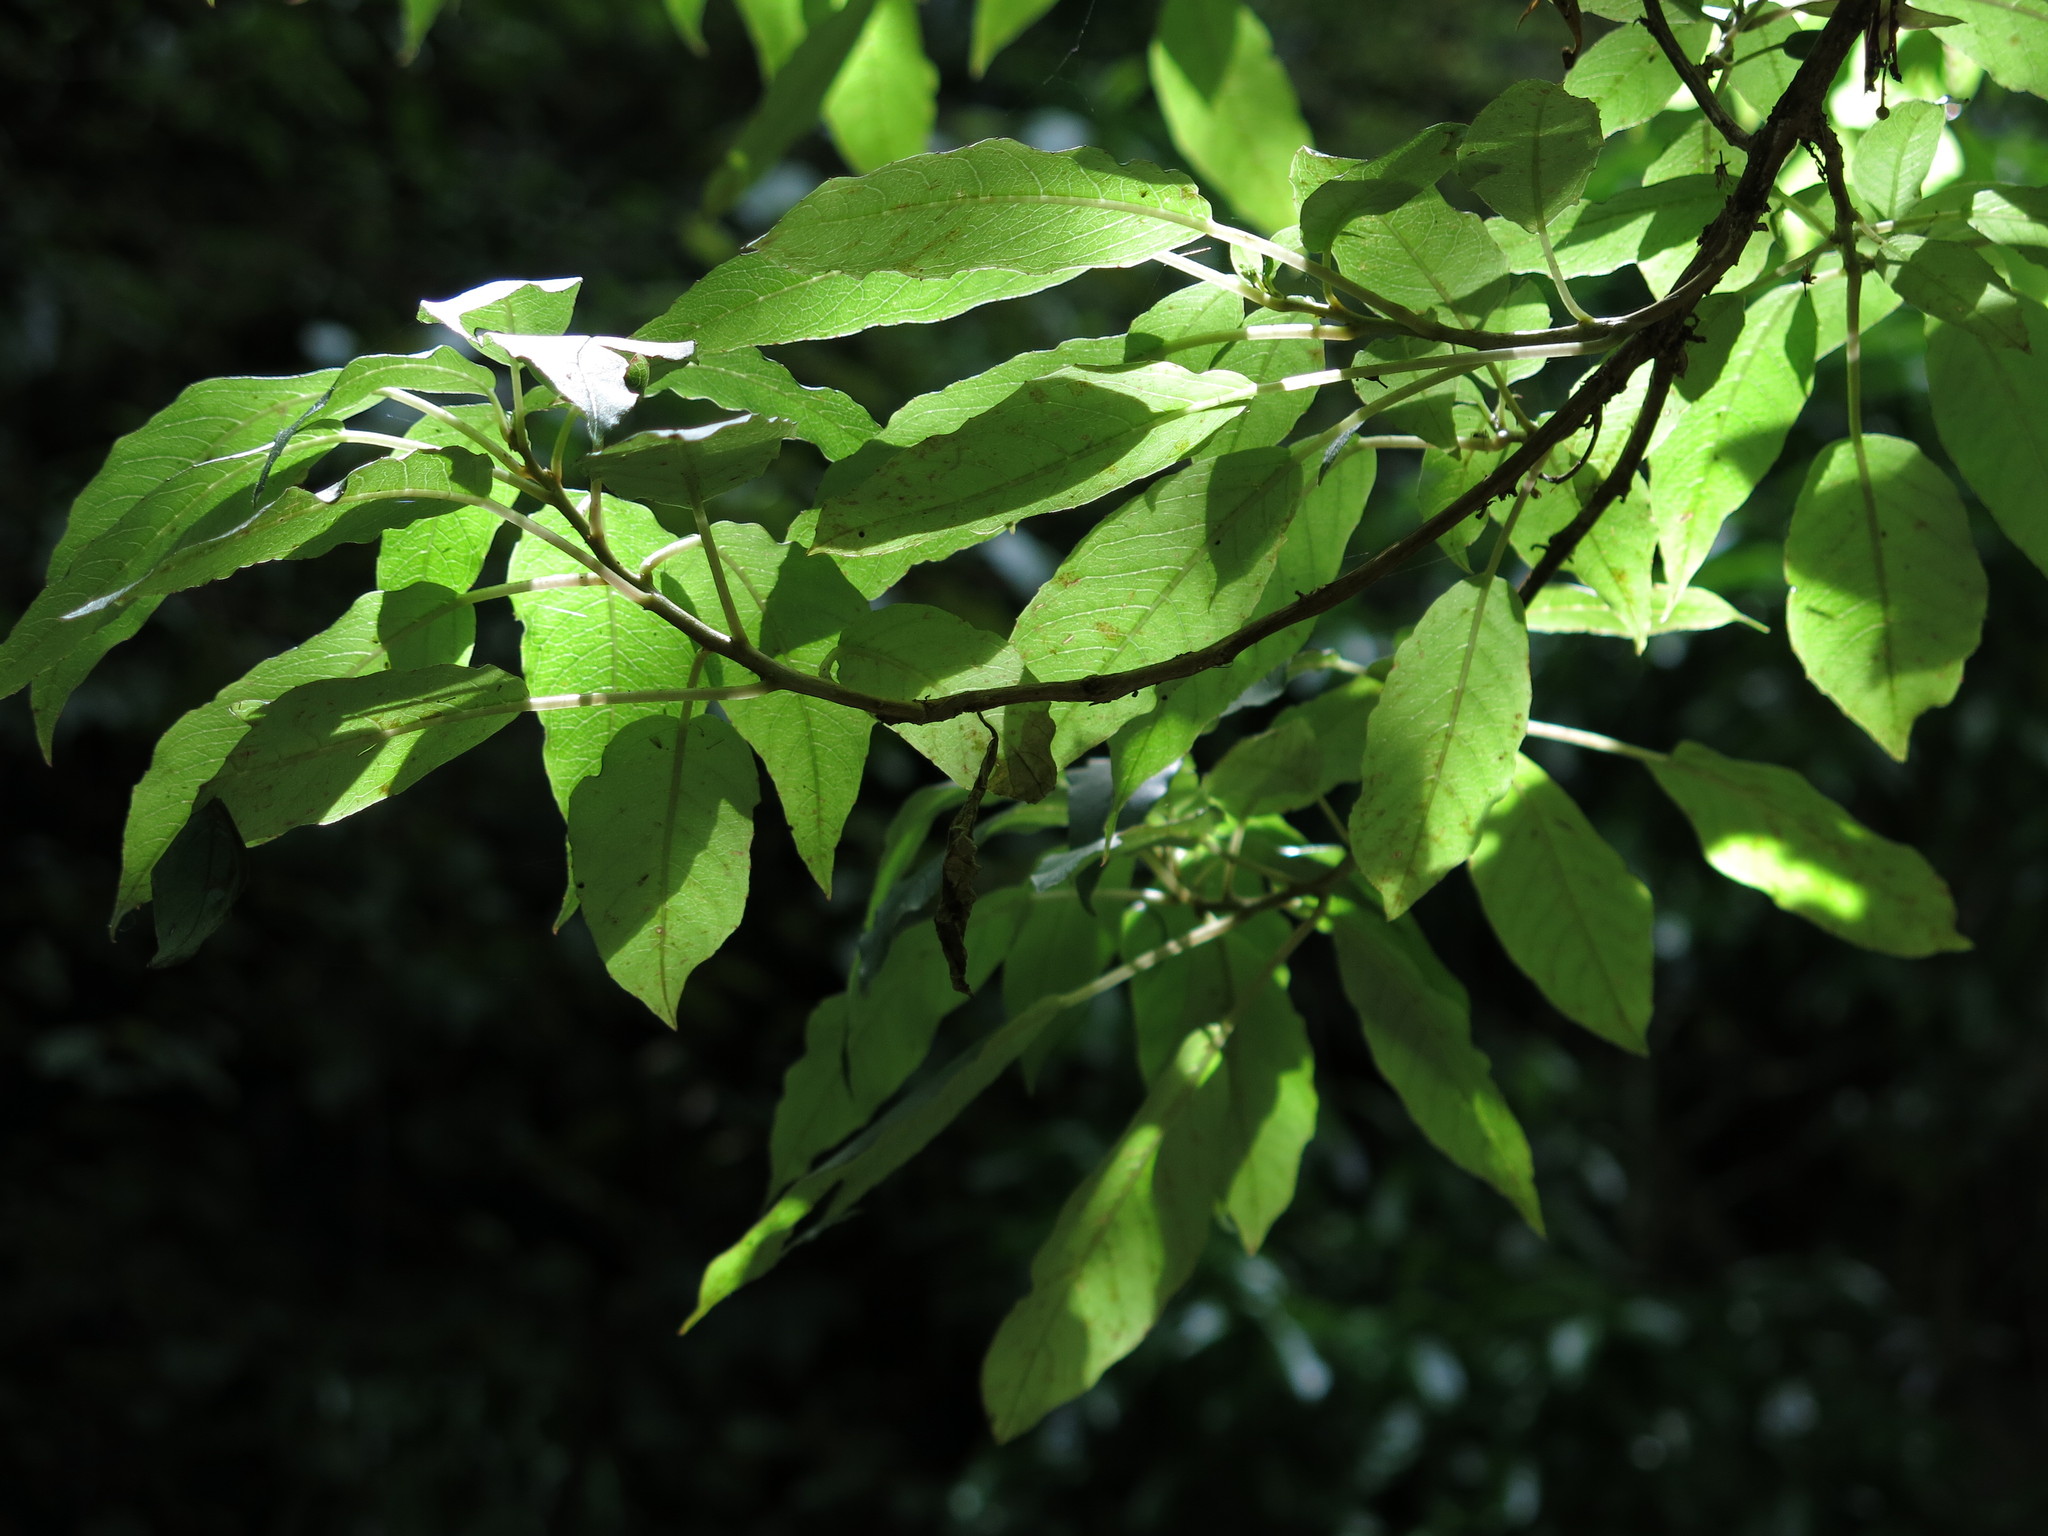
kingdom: Plantae
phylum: Tracheophyta
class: Magnoliopsida
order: Myrtales
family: Onagraceae
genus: Fuchsia
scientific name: Fuchsia excorticata
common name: Tree fuchsia
